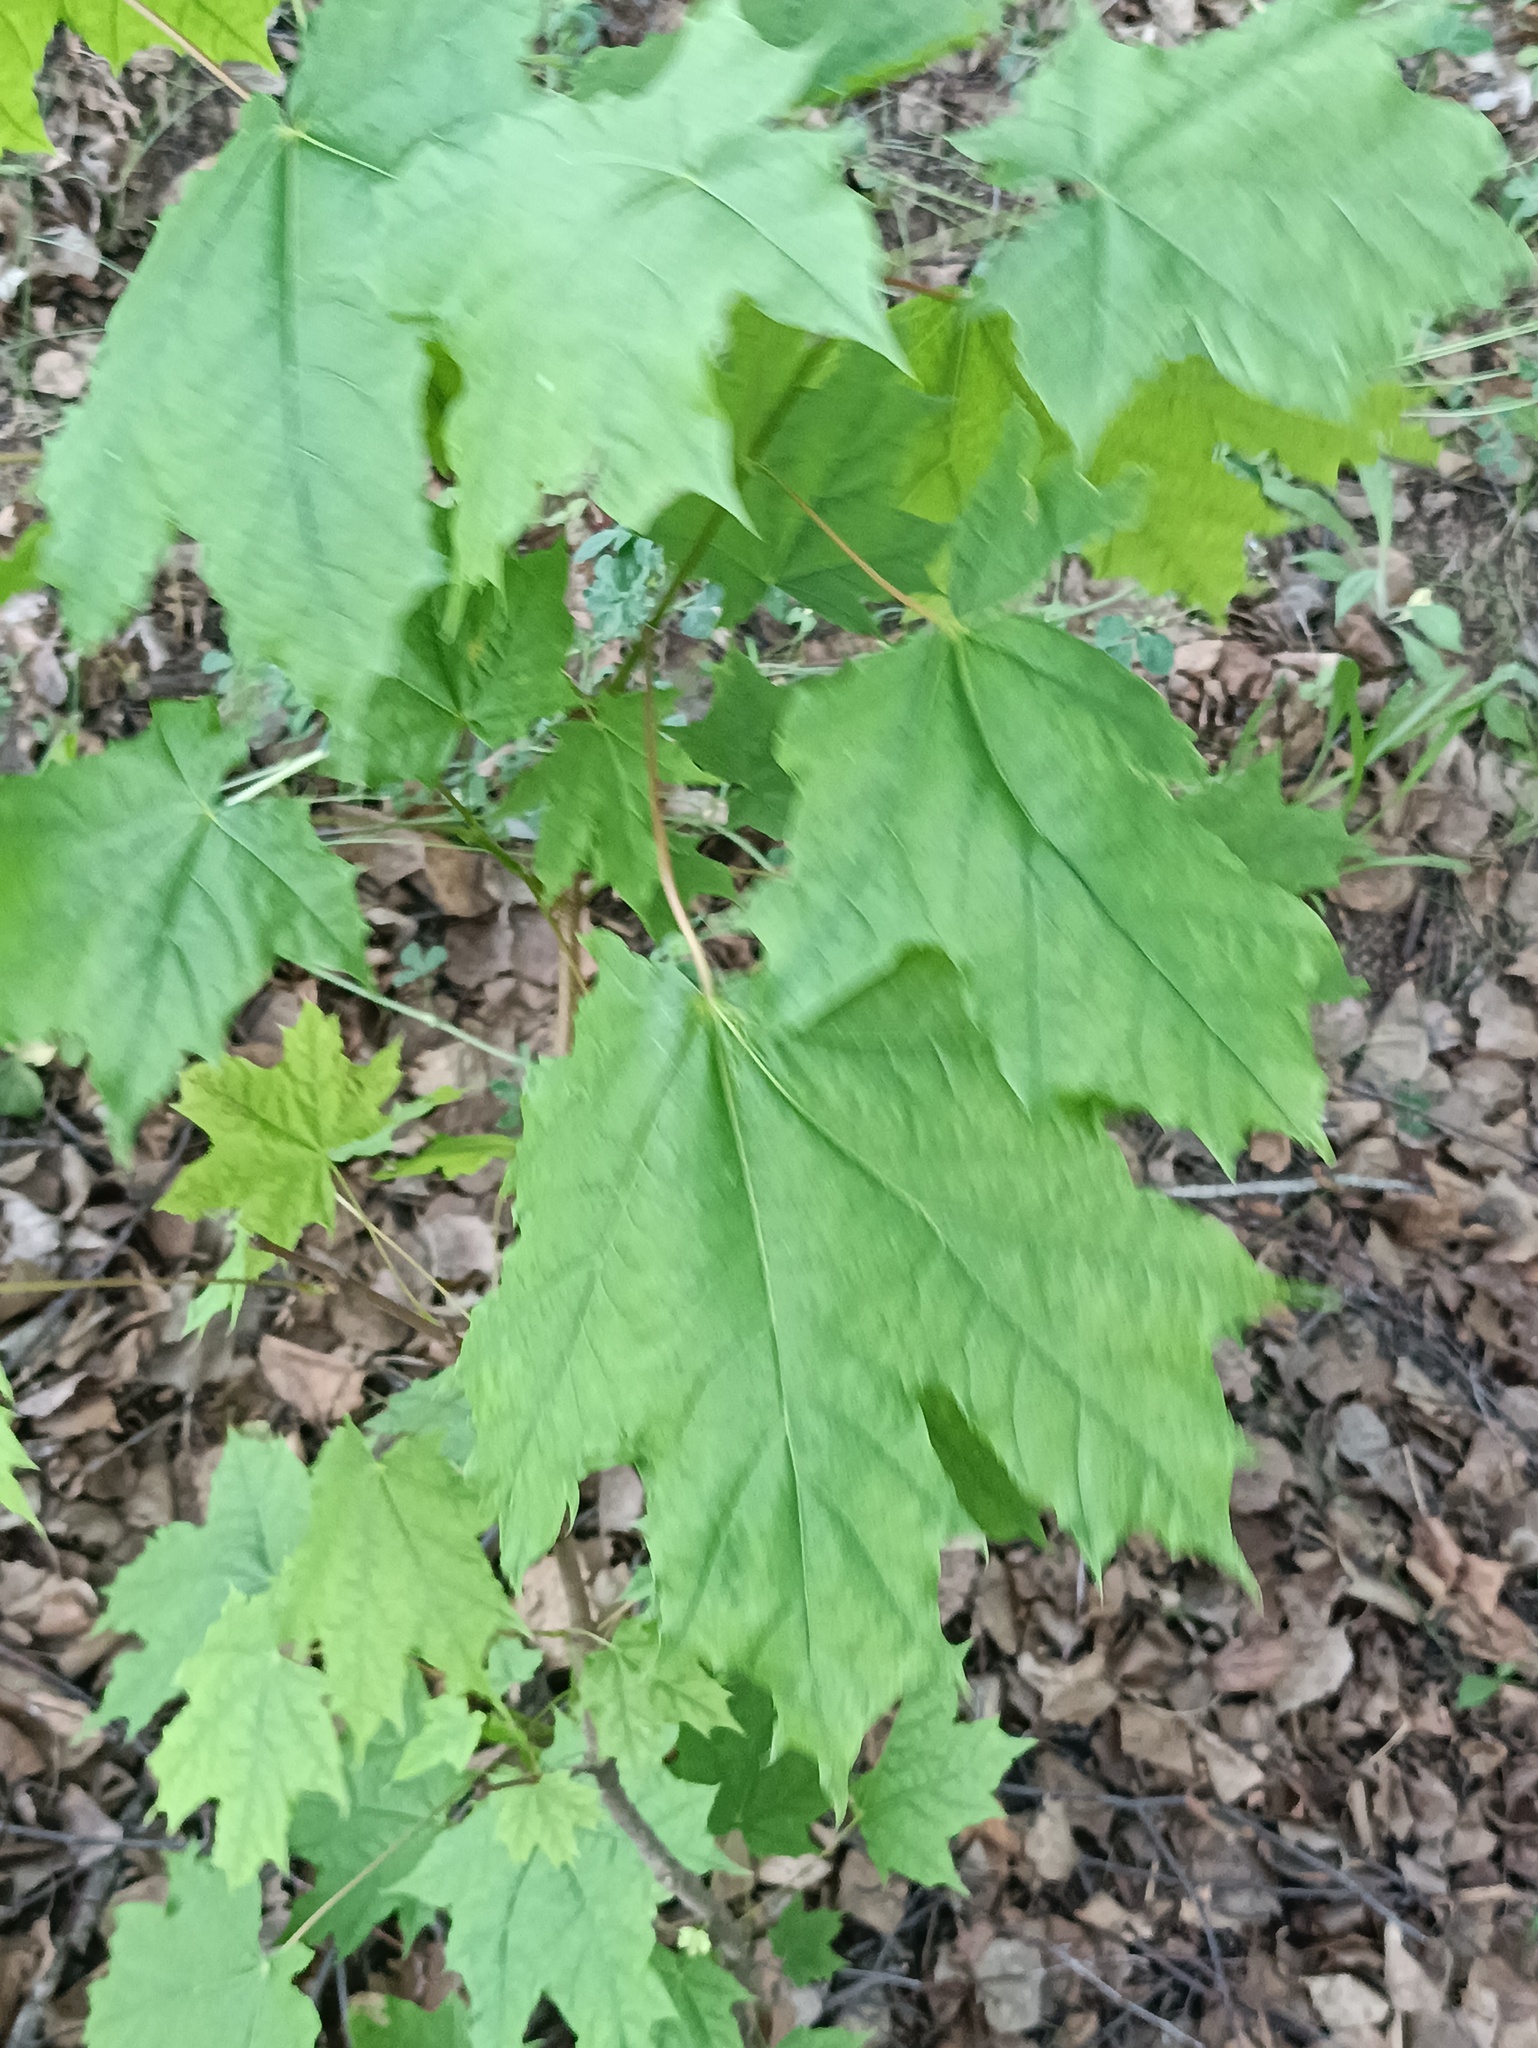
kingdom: Plantae
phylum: Tracheophyta
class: Magnoliopsida
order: Sapindales
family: Sapindaceae
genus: Acer
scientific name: Acer platanoides
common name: Norway maple
